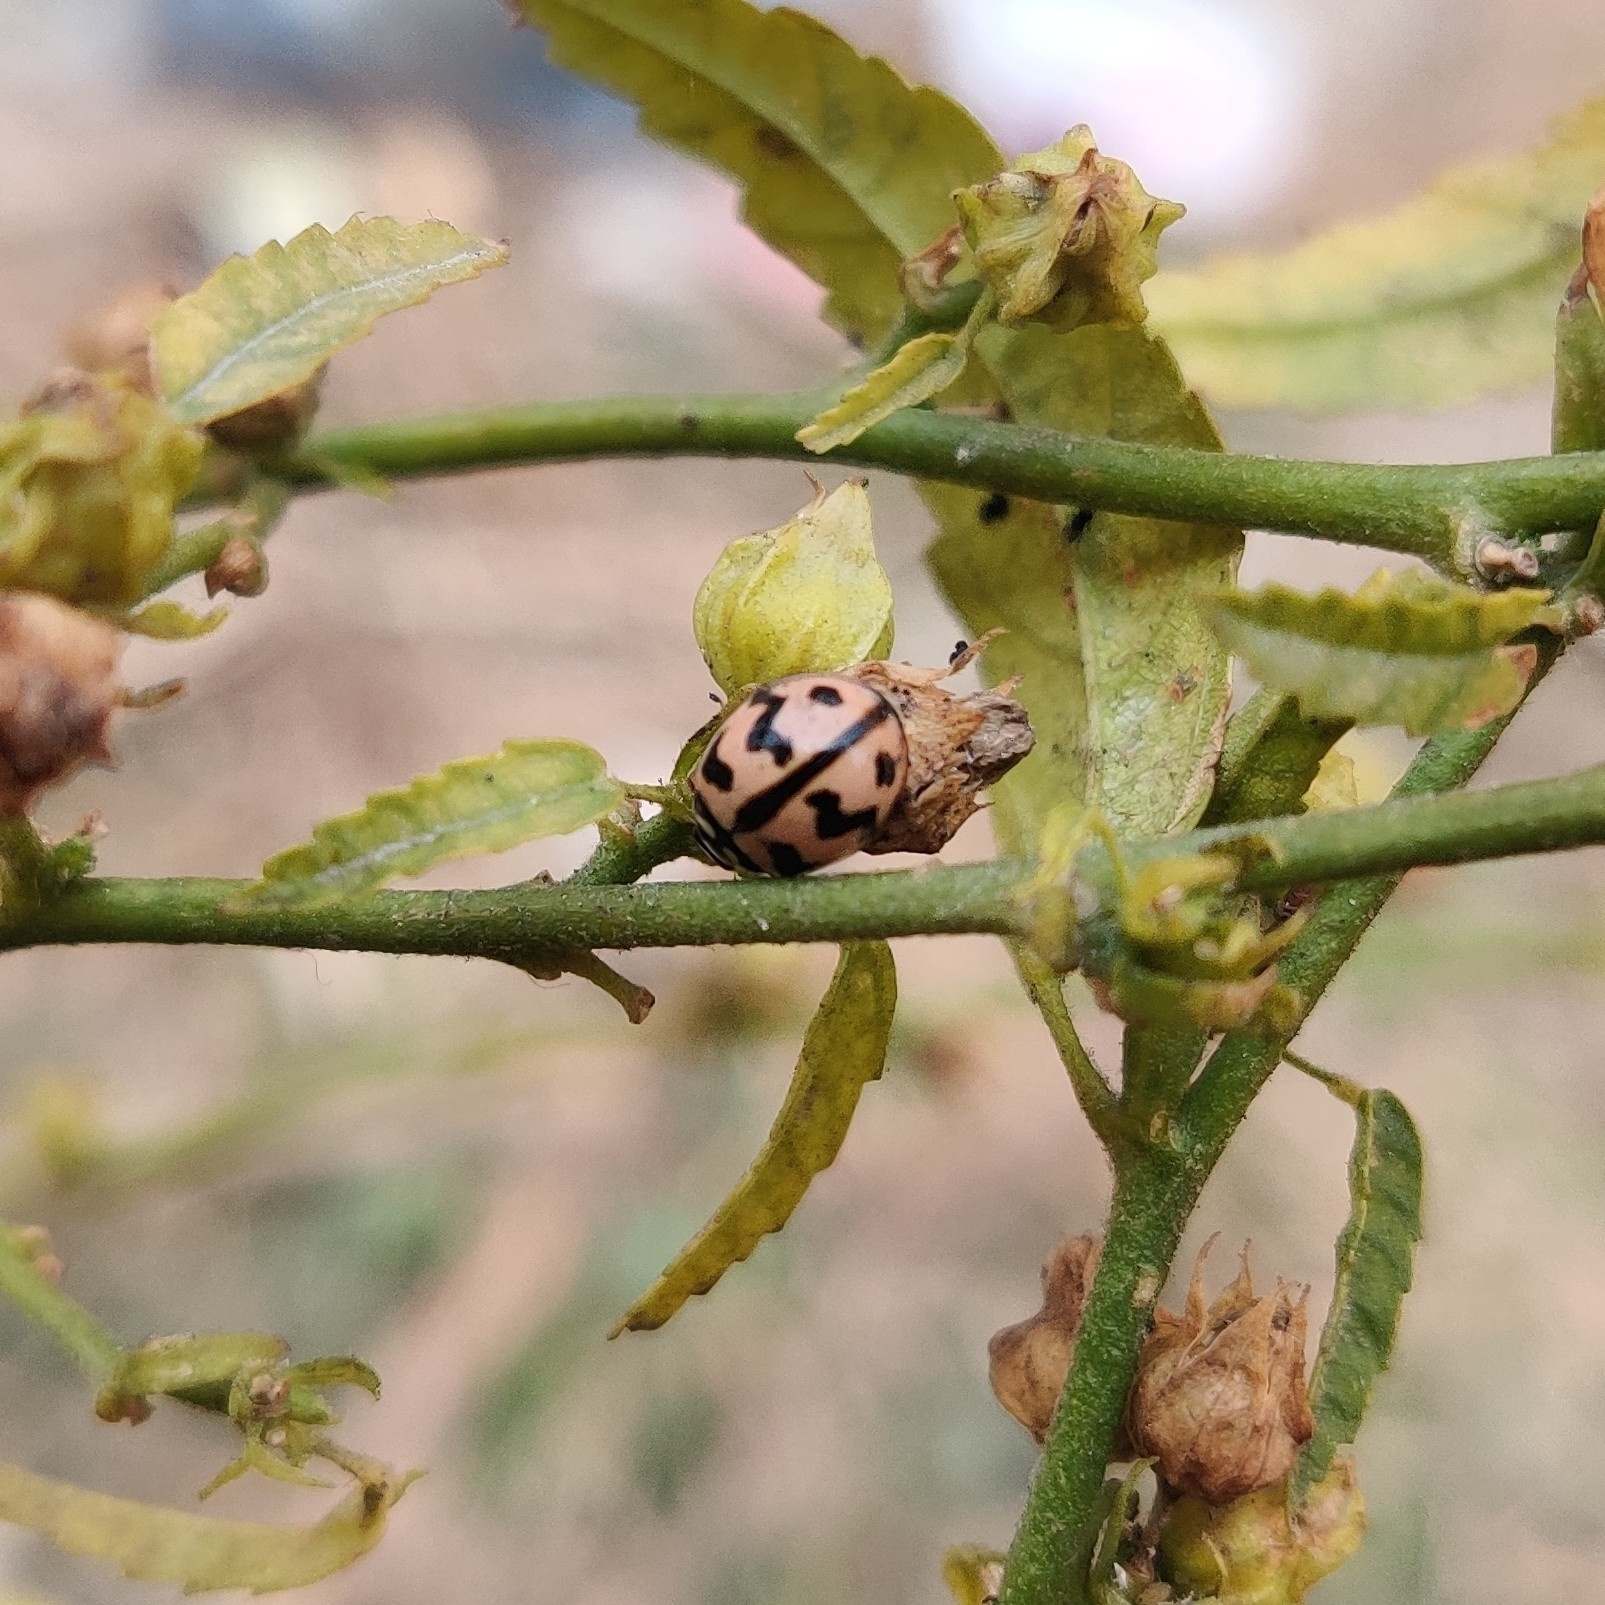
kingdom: Animalia
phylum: Arthropoda
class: Insecta
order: Coleoptera
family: Coccinellidae
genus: Cheilomenes
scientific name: Cheilomenes sexmaculata
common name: Ladybird beetle
